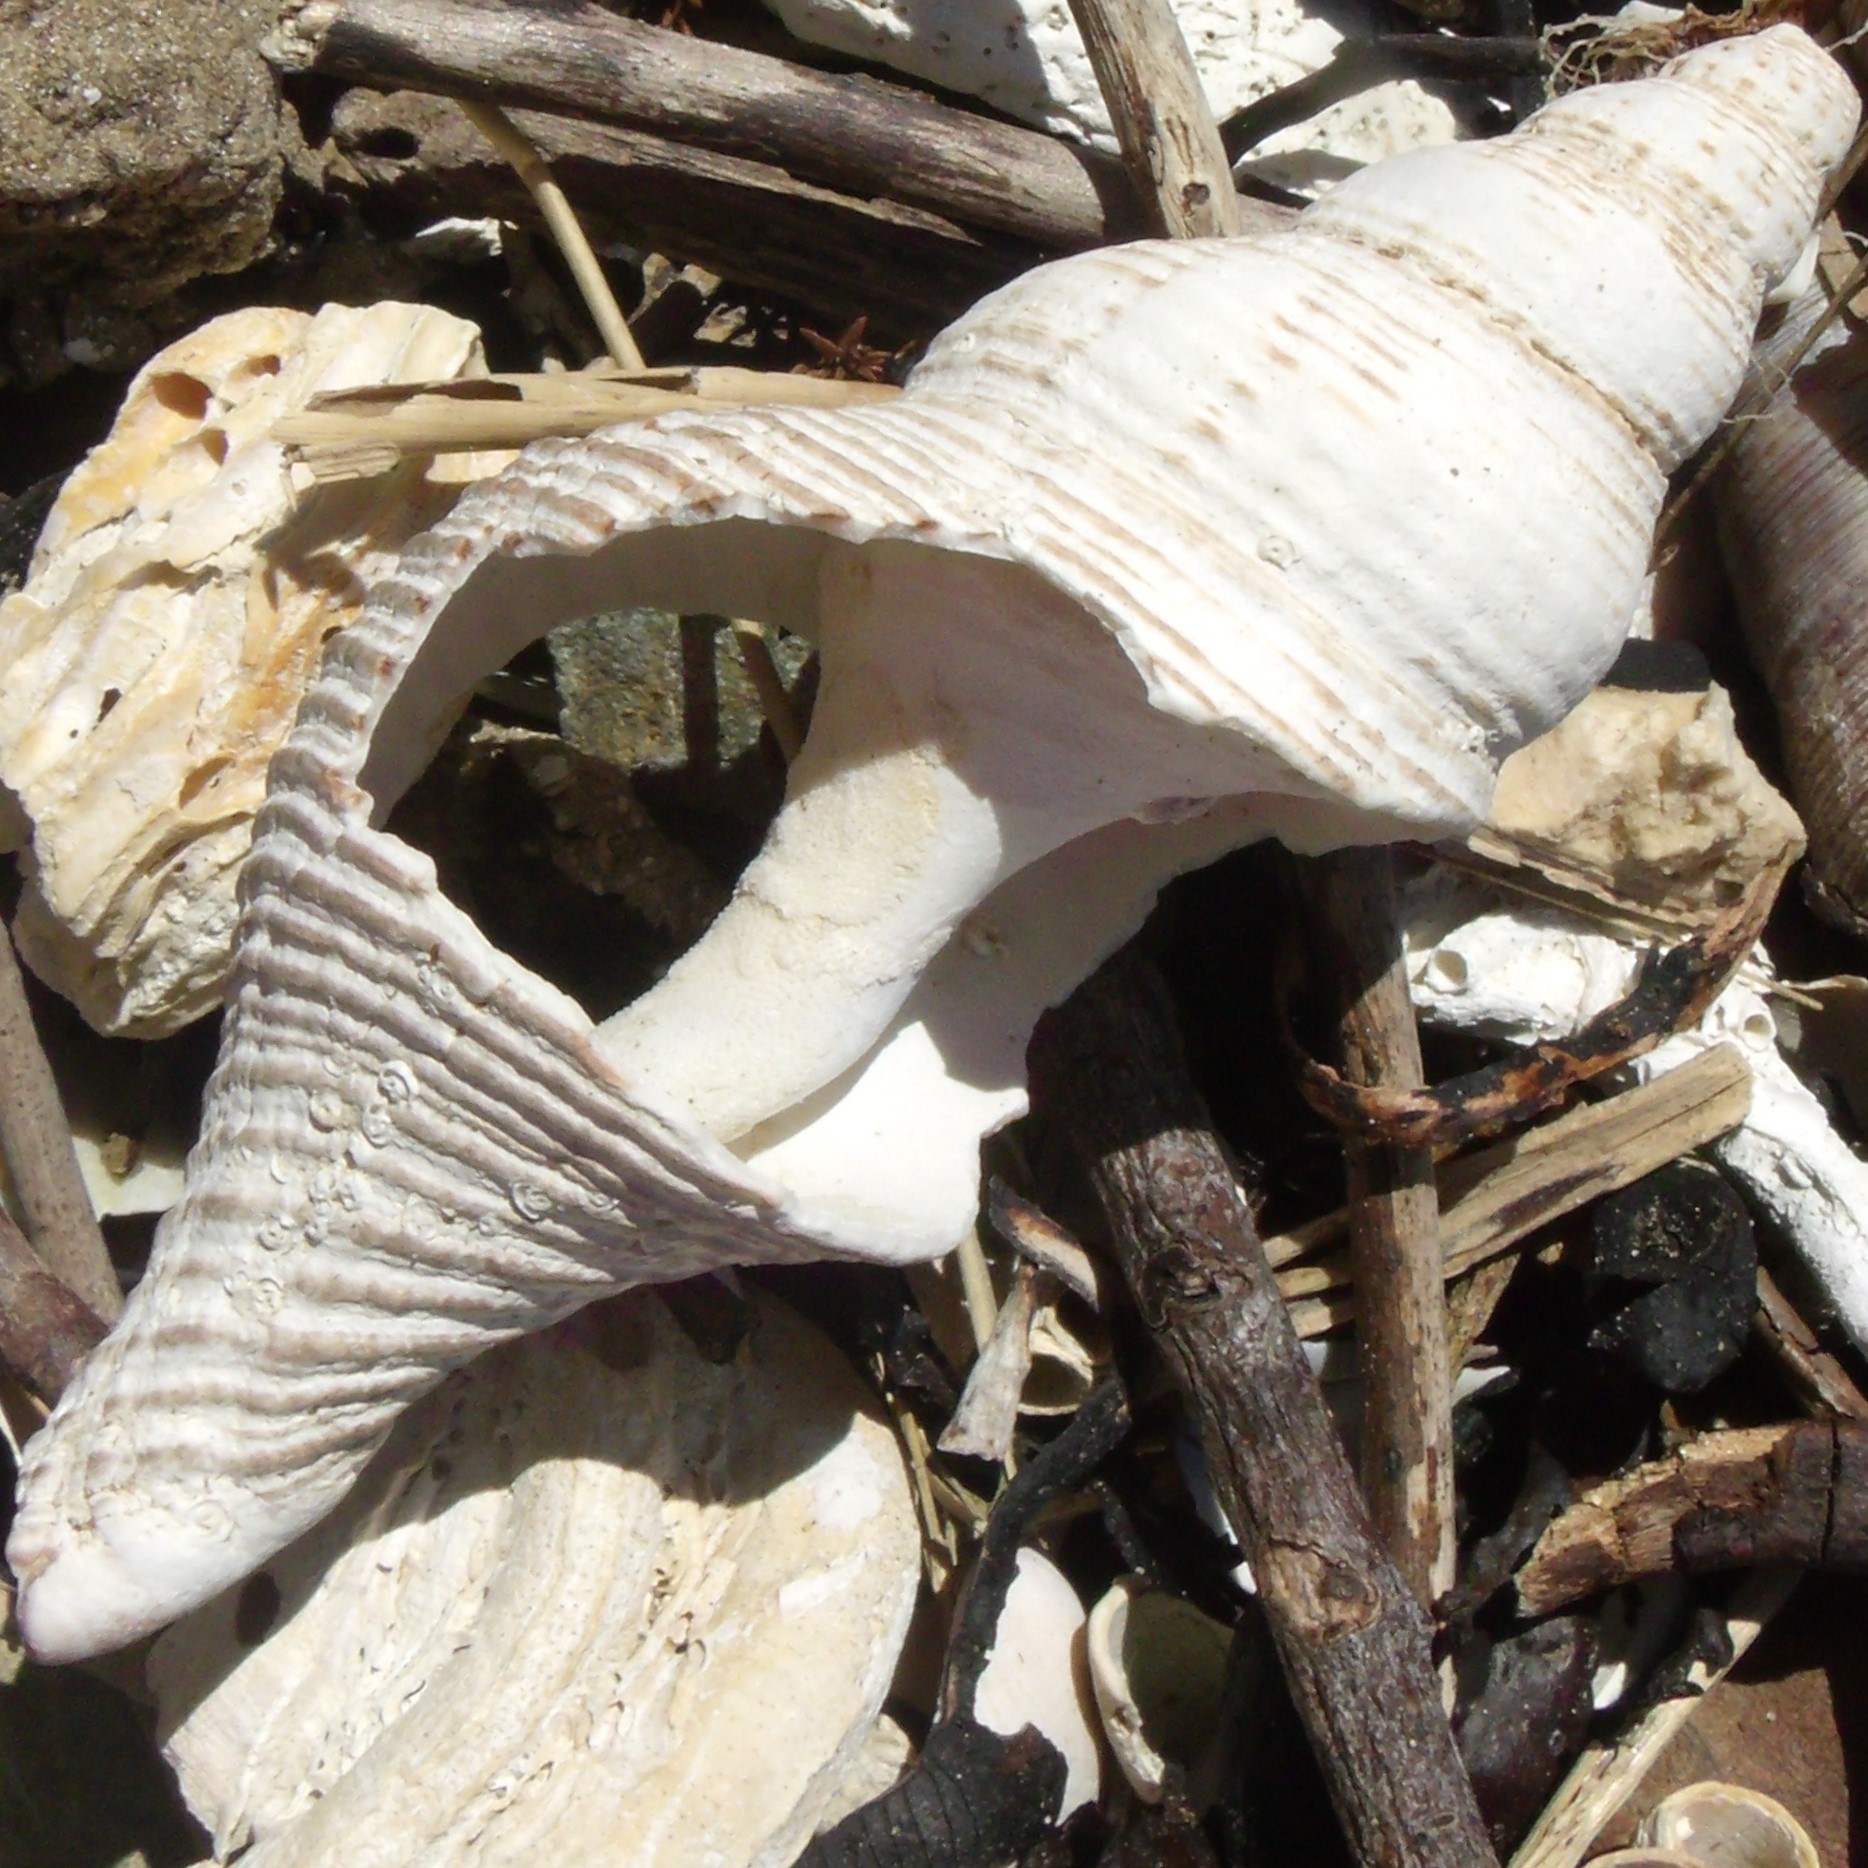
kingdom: Animalia
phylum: Mollusca
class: Gastropoda
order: Neogastropoda
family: Austrosiphonidae
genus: Penion
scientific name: Penion sulcatus
